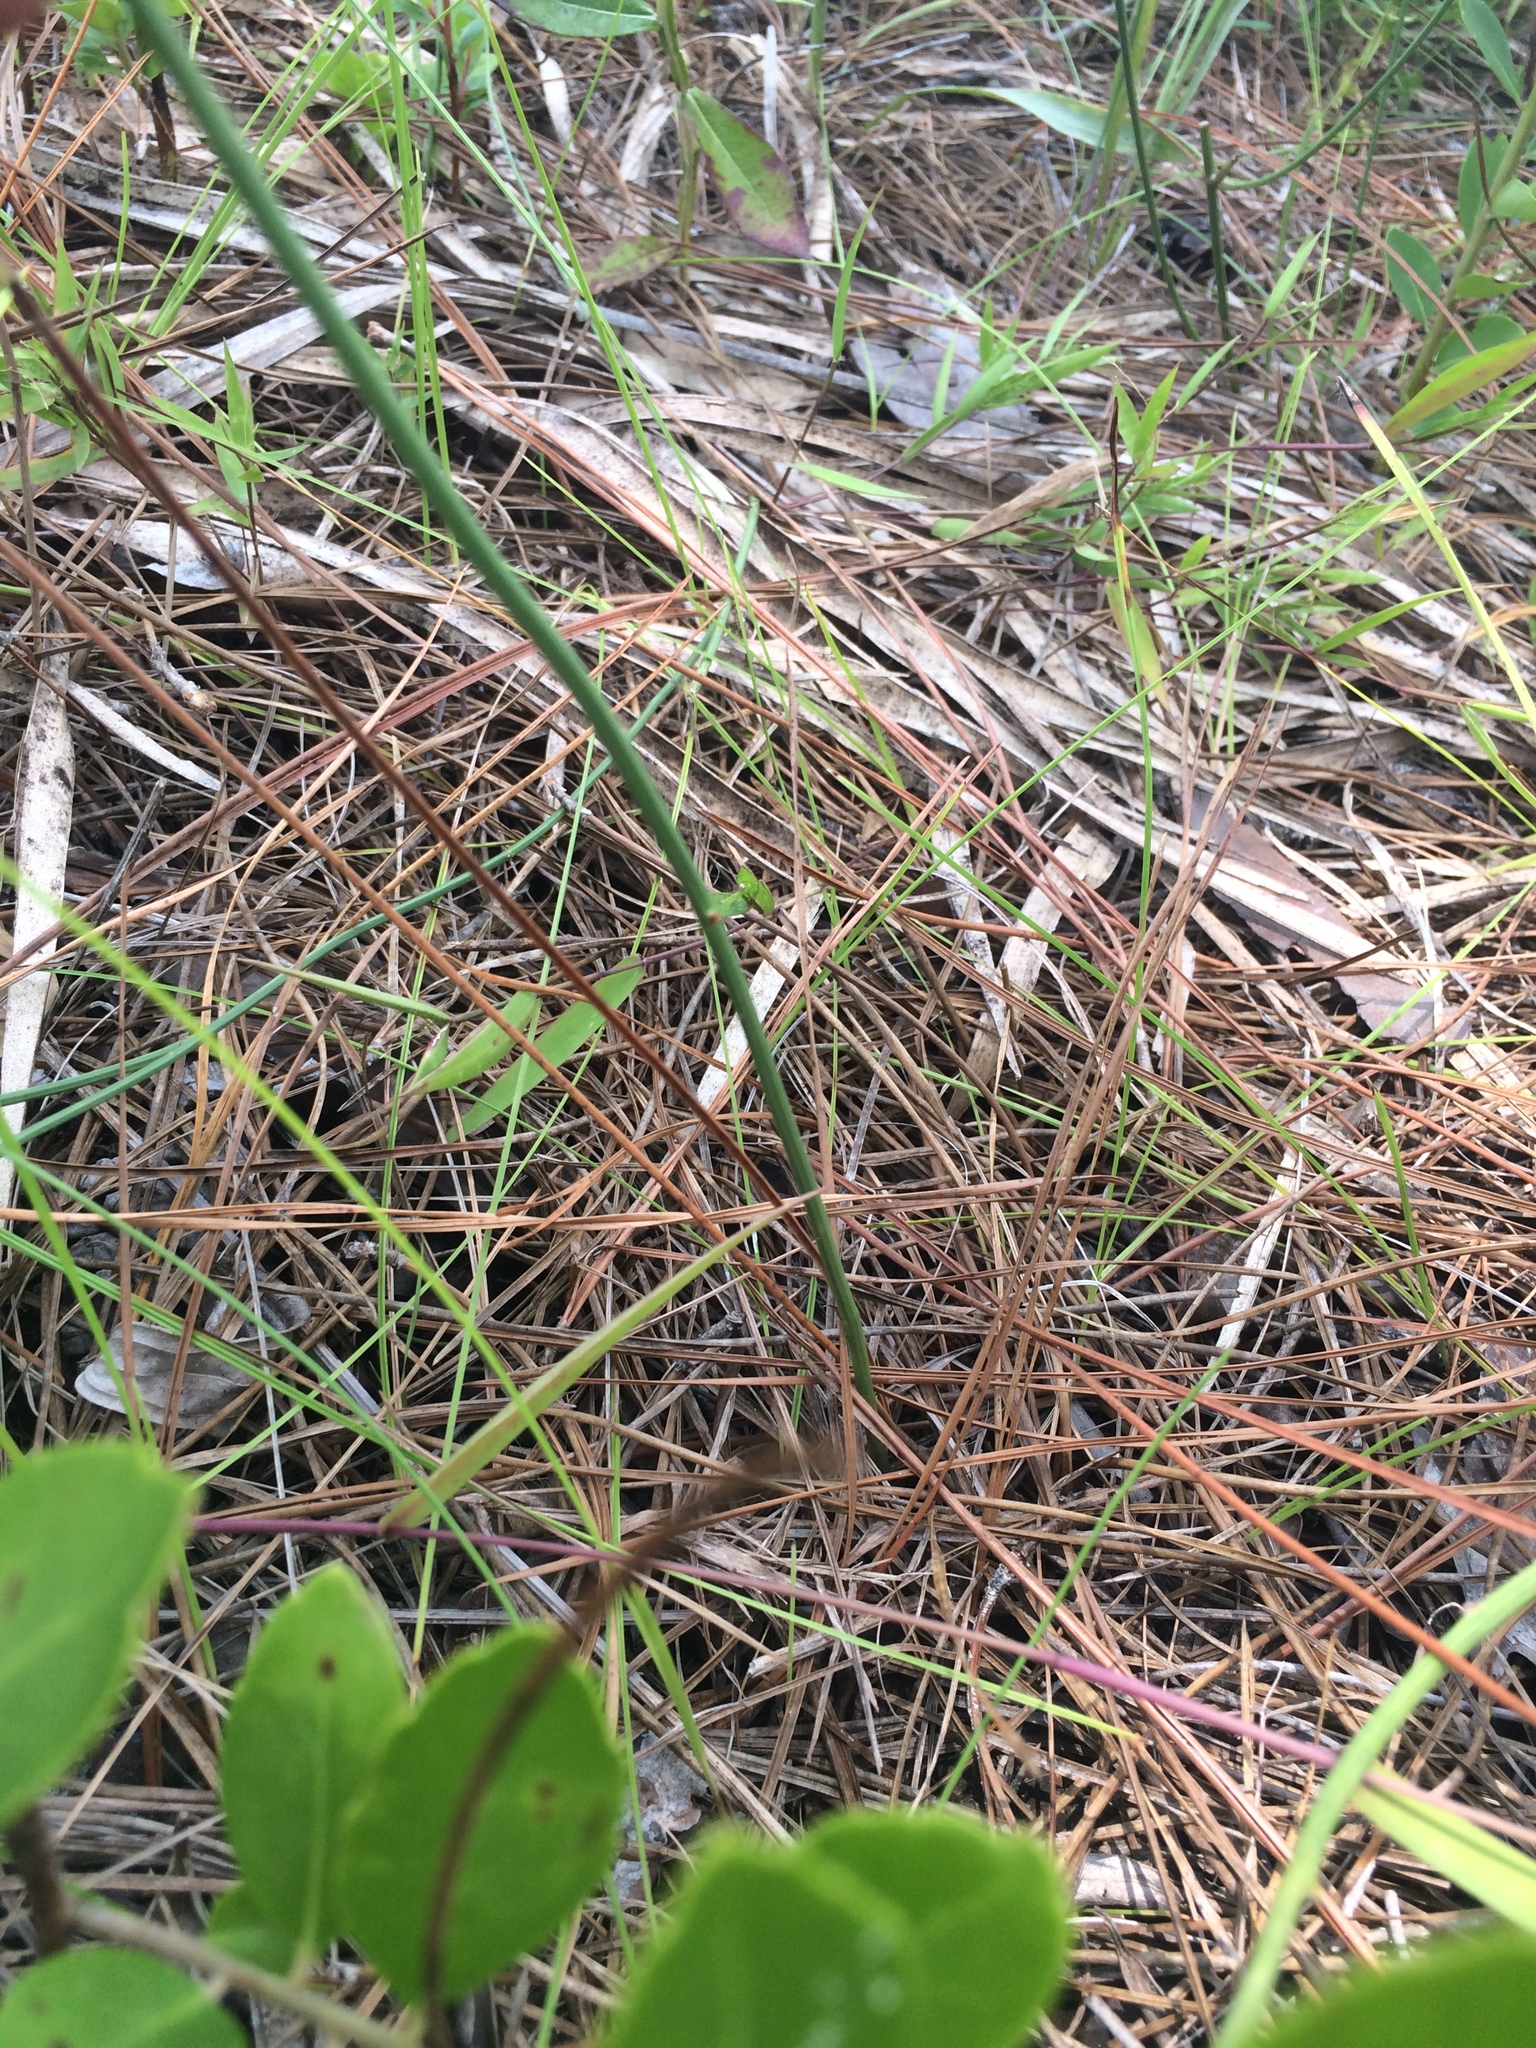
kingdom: Plantae
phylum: Tracheophyta
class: Magnoliopsida
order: Asterales
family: Asteraceae
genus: Lygodesmia
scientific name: Lygodesmia aphylla
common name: Rose-rush
